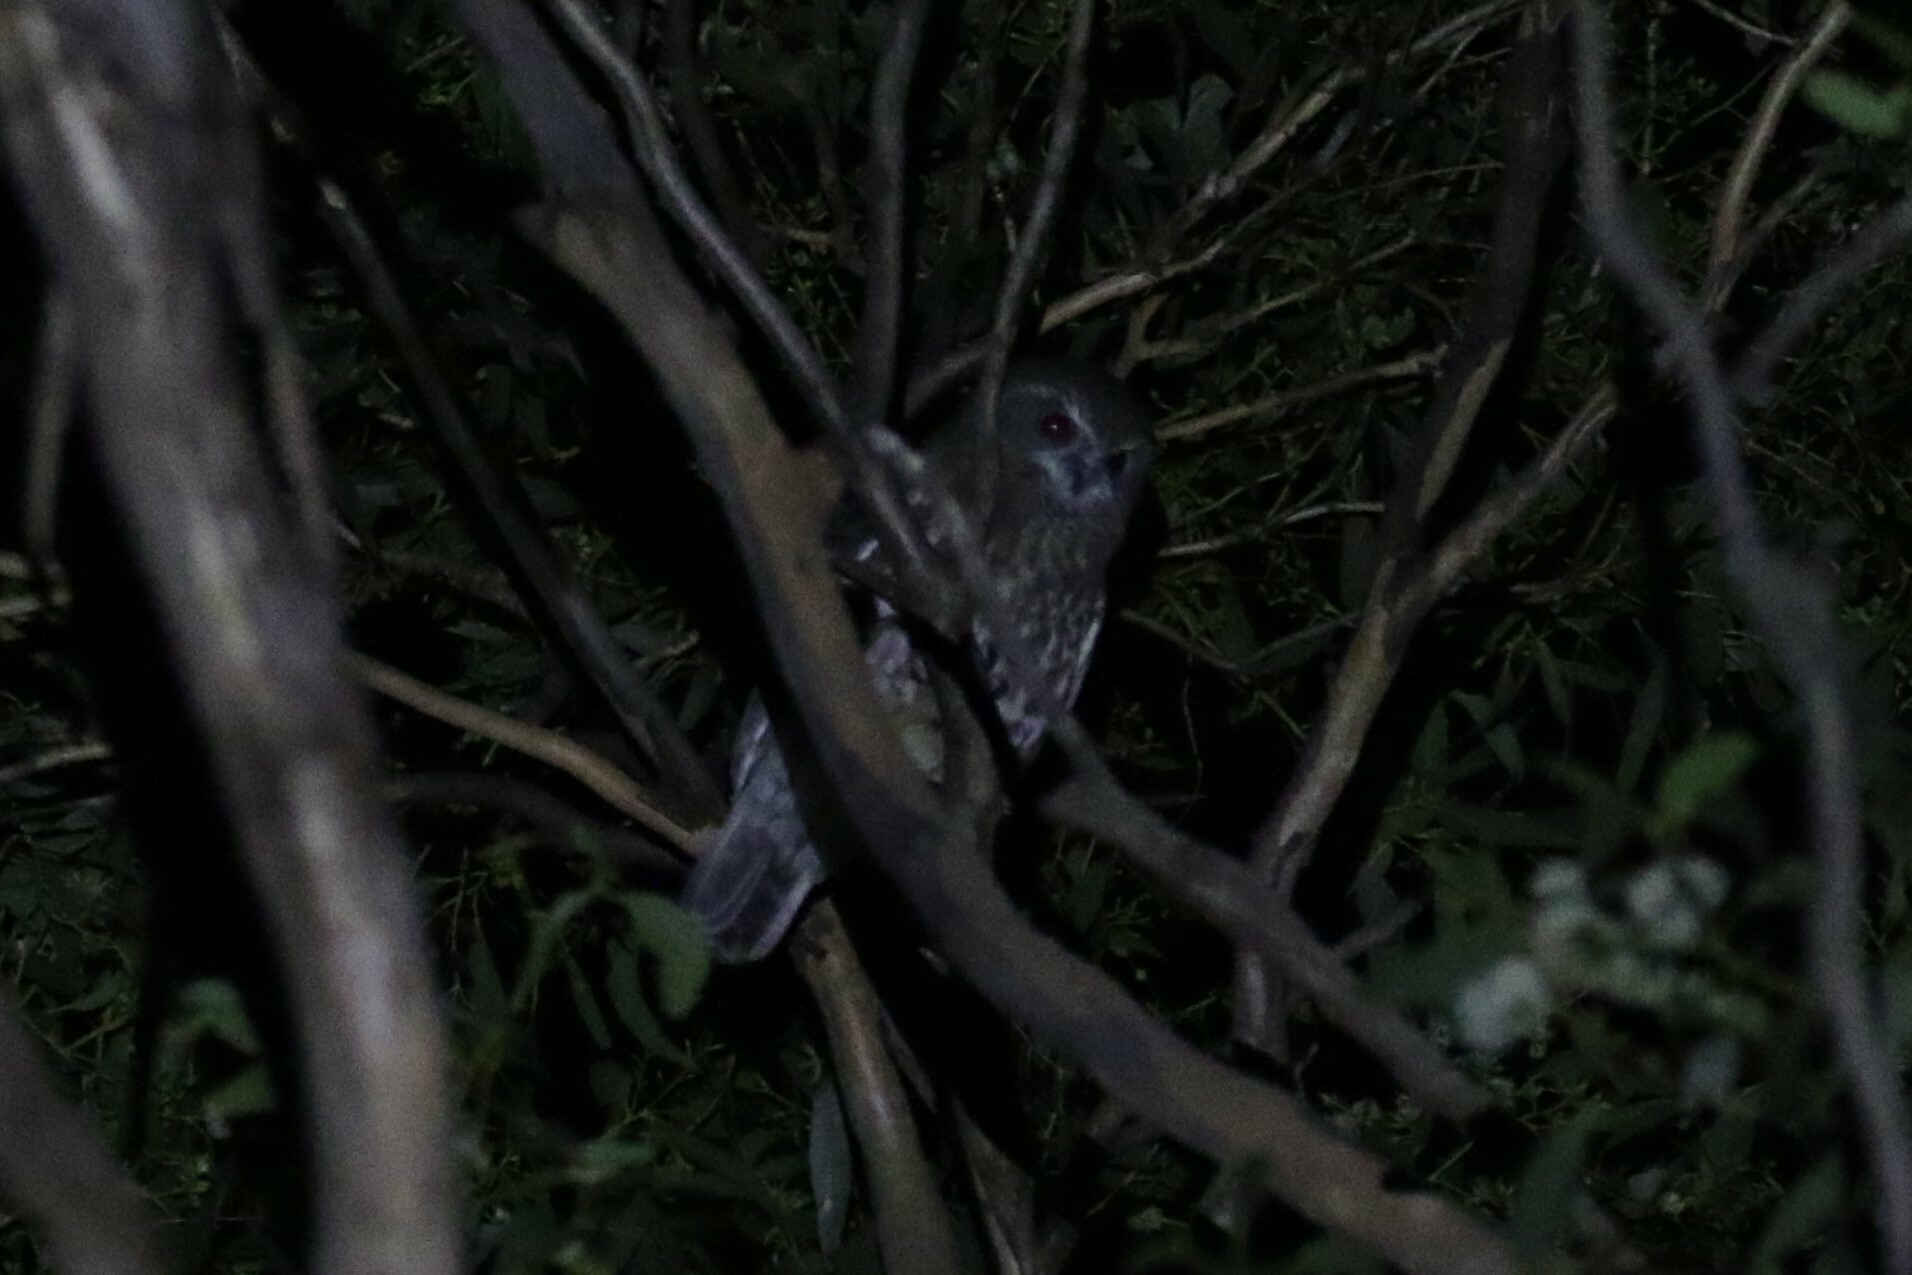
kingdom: Animalia
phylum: Chordata
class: Aves
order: Strigiformes
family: Strigidae
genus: Ninox
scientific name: Ninox boobook
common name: Southern boobook
